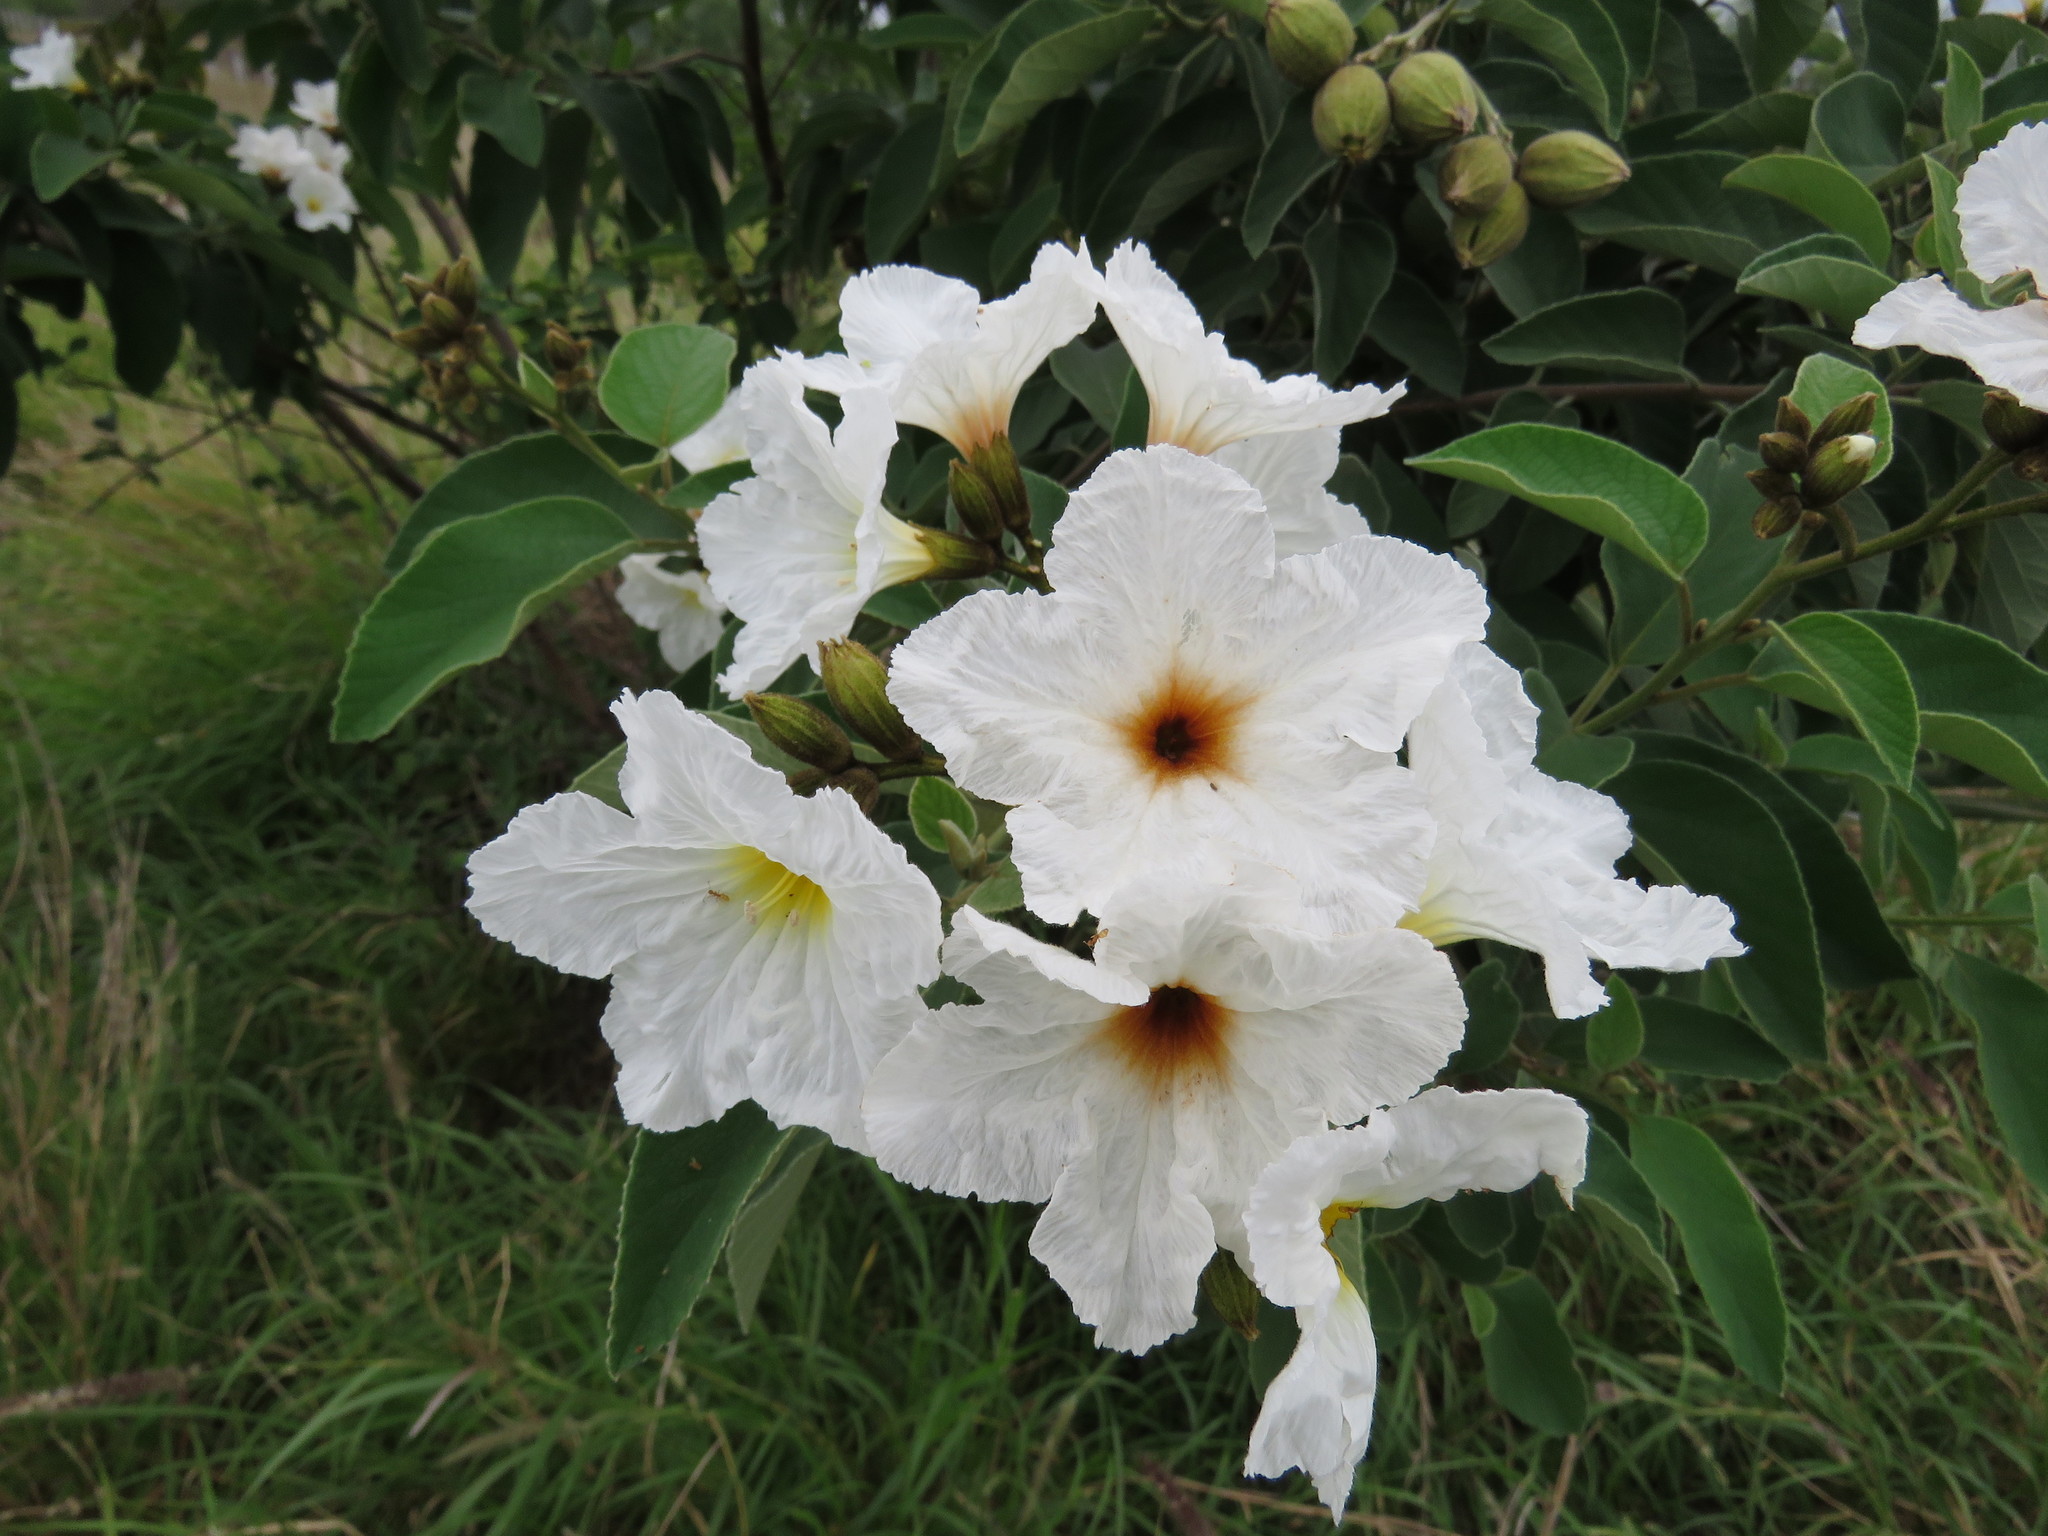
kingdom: Plantae
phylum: Tracheophyta
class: Magnoliopsida
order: Boraginales
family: Cordiaceae
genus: Cordia
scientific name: Cordia boissieri
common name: Mexican-olive
